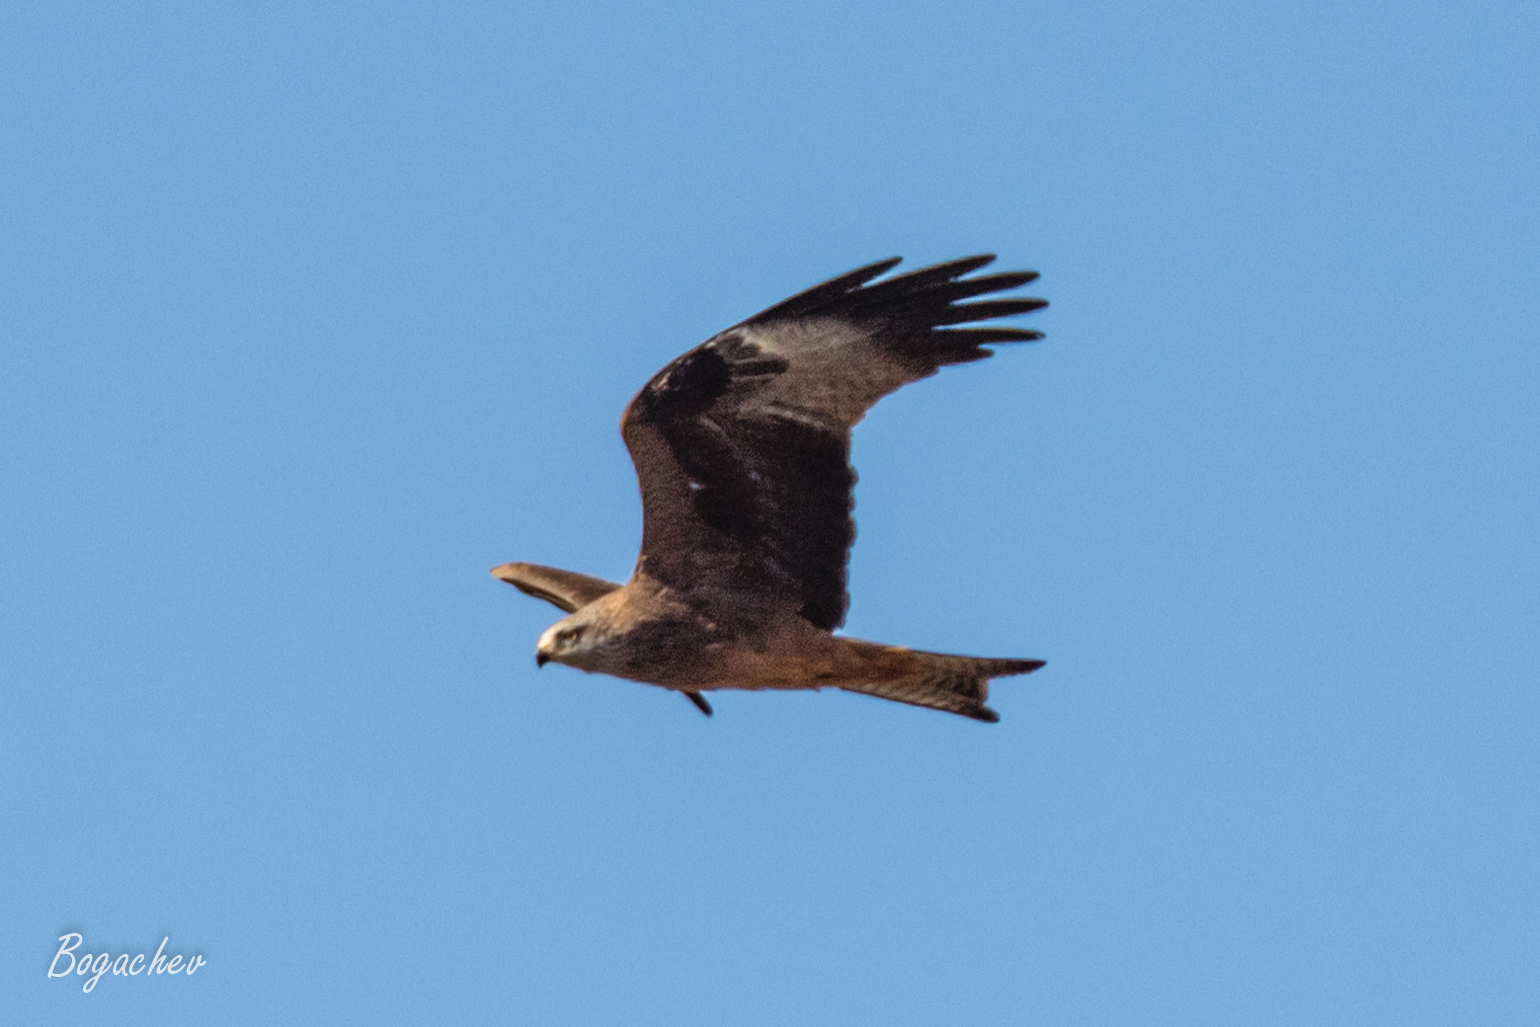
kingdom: Animalia
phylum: Chordata
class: Aves
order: Accipitriformes
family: Accipitridae
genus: Milvus
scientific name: Milvus migrans
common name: Black kite
